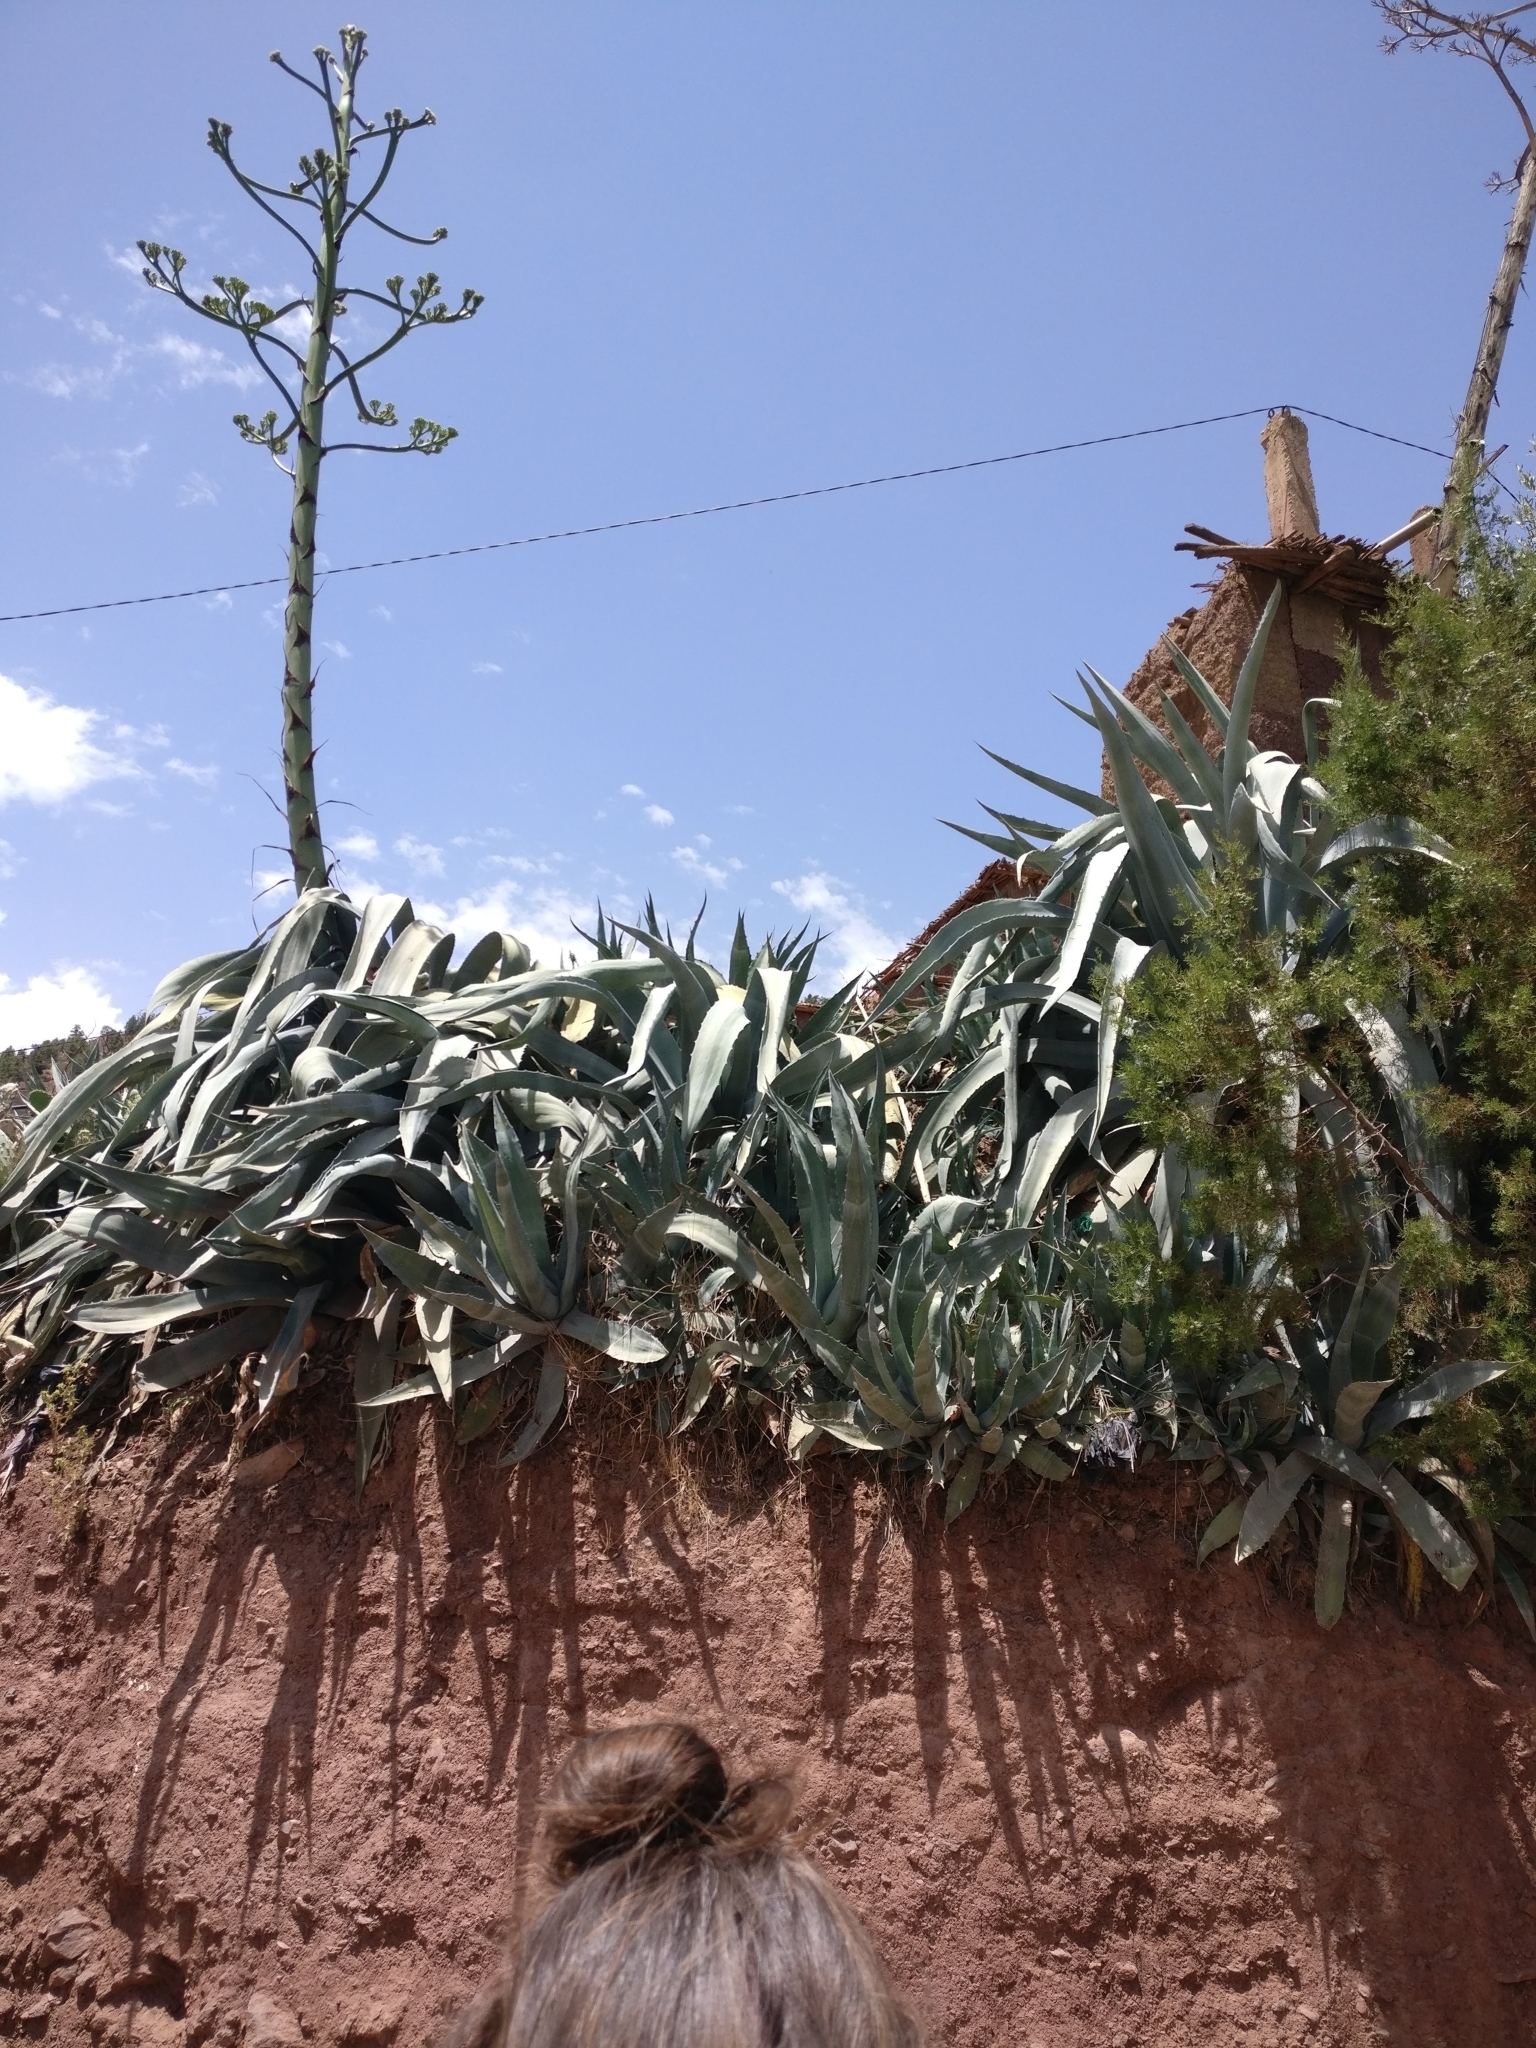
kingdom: Plantae
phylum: Tracheophyta
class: Liliopsida
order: Asparagales
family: Asparagaceae
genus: Agave
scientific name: Agave americana
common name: Centuryplant
